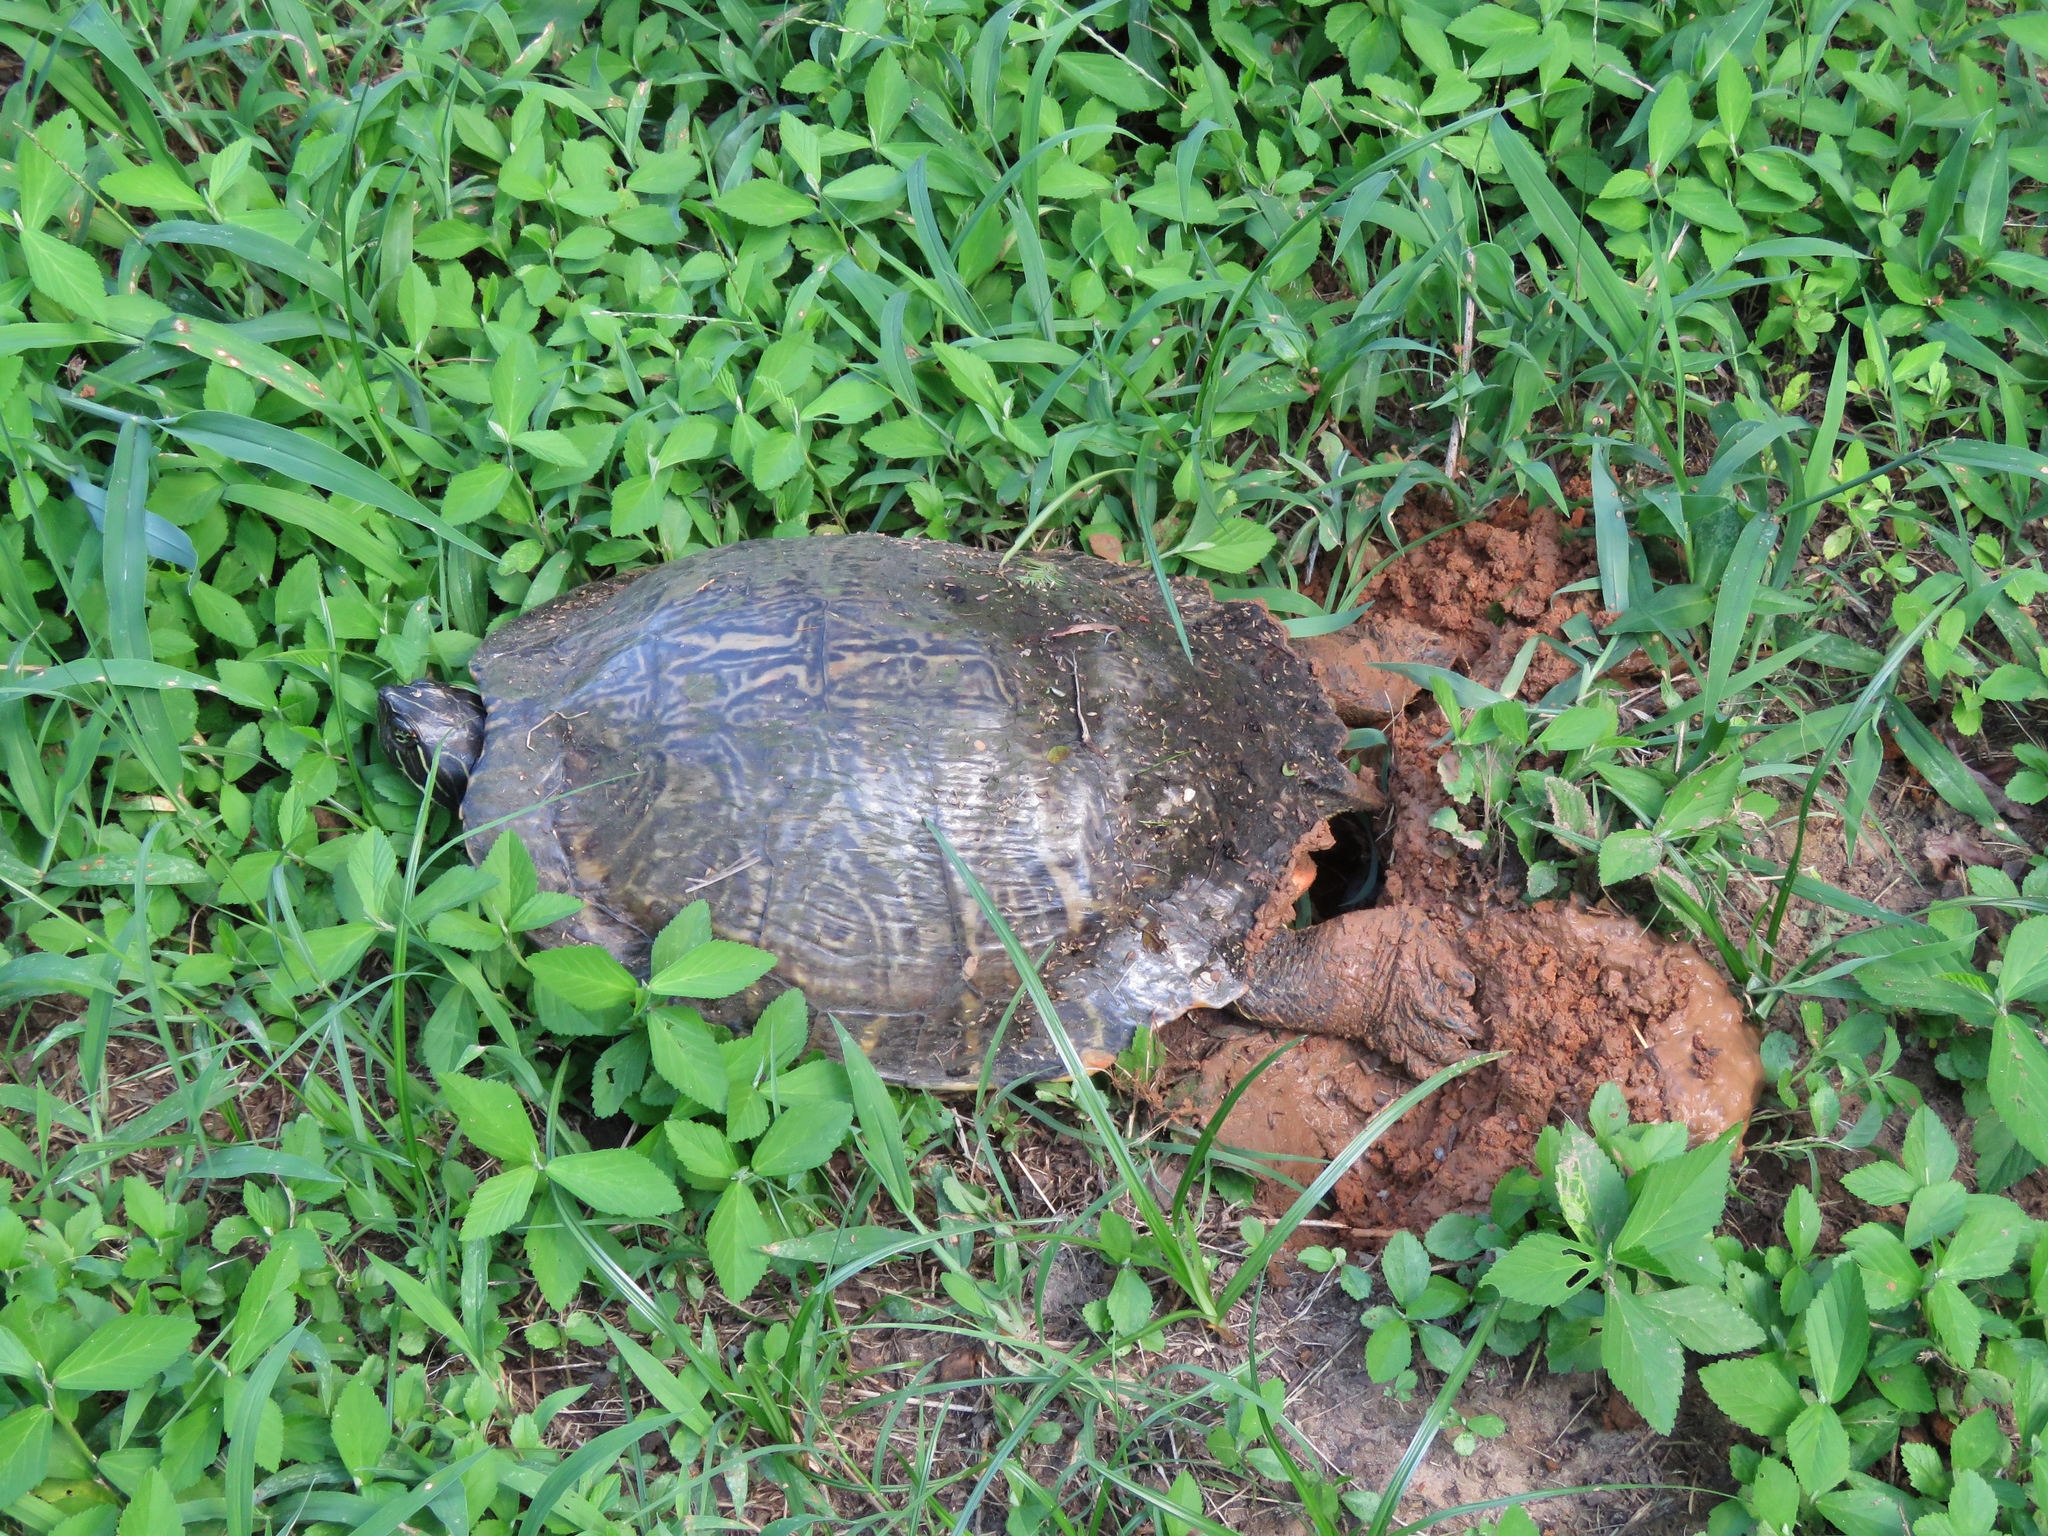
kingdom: Animalia
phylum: Chordata
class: Testudines
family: Emydidae
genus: Pseudemys
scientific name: Pseudemys concinna
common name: Eastern river cooter
